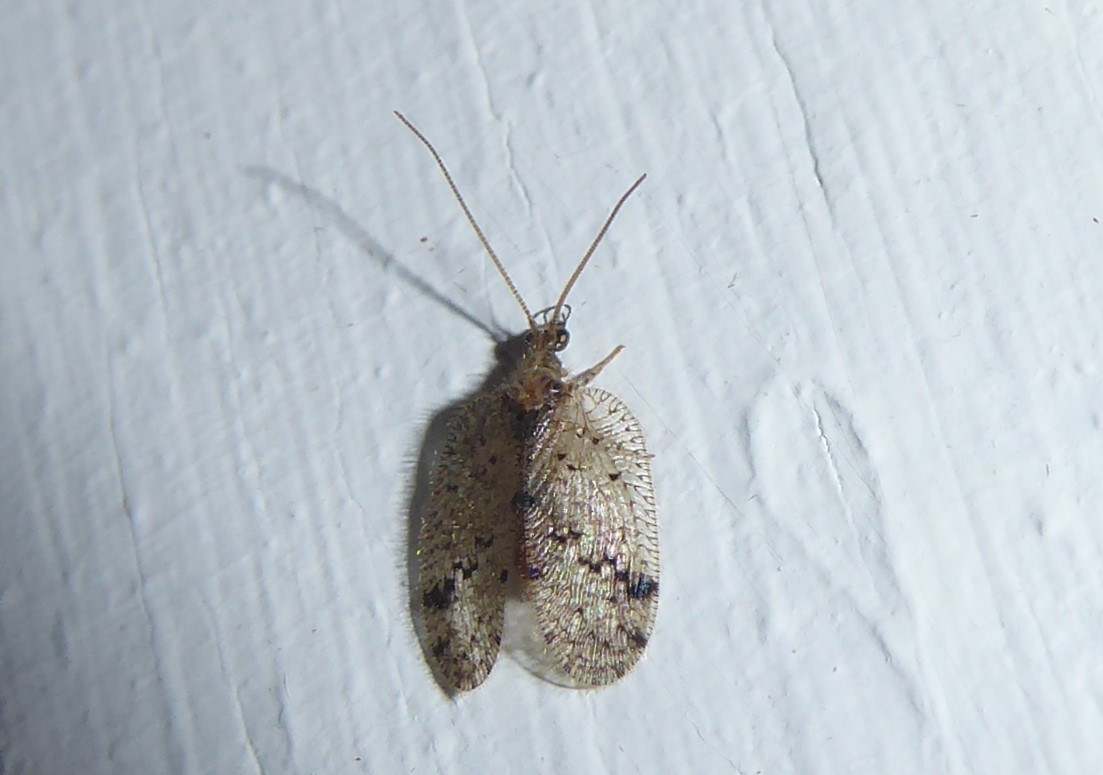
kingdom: Animalia
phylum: Arthropoda
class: Insecta
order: Neuroptera
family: Hemerobiidae
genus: Psectra
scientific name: Psectra nakaharai
